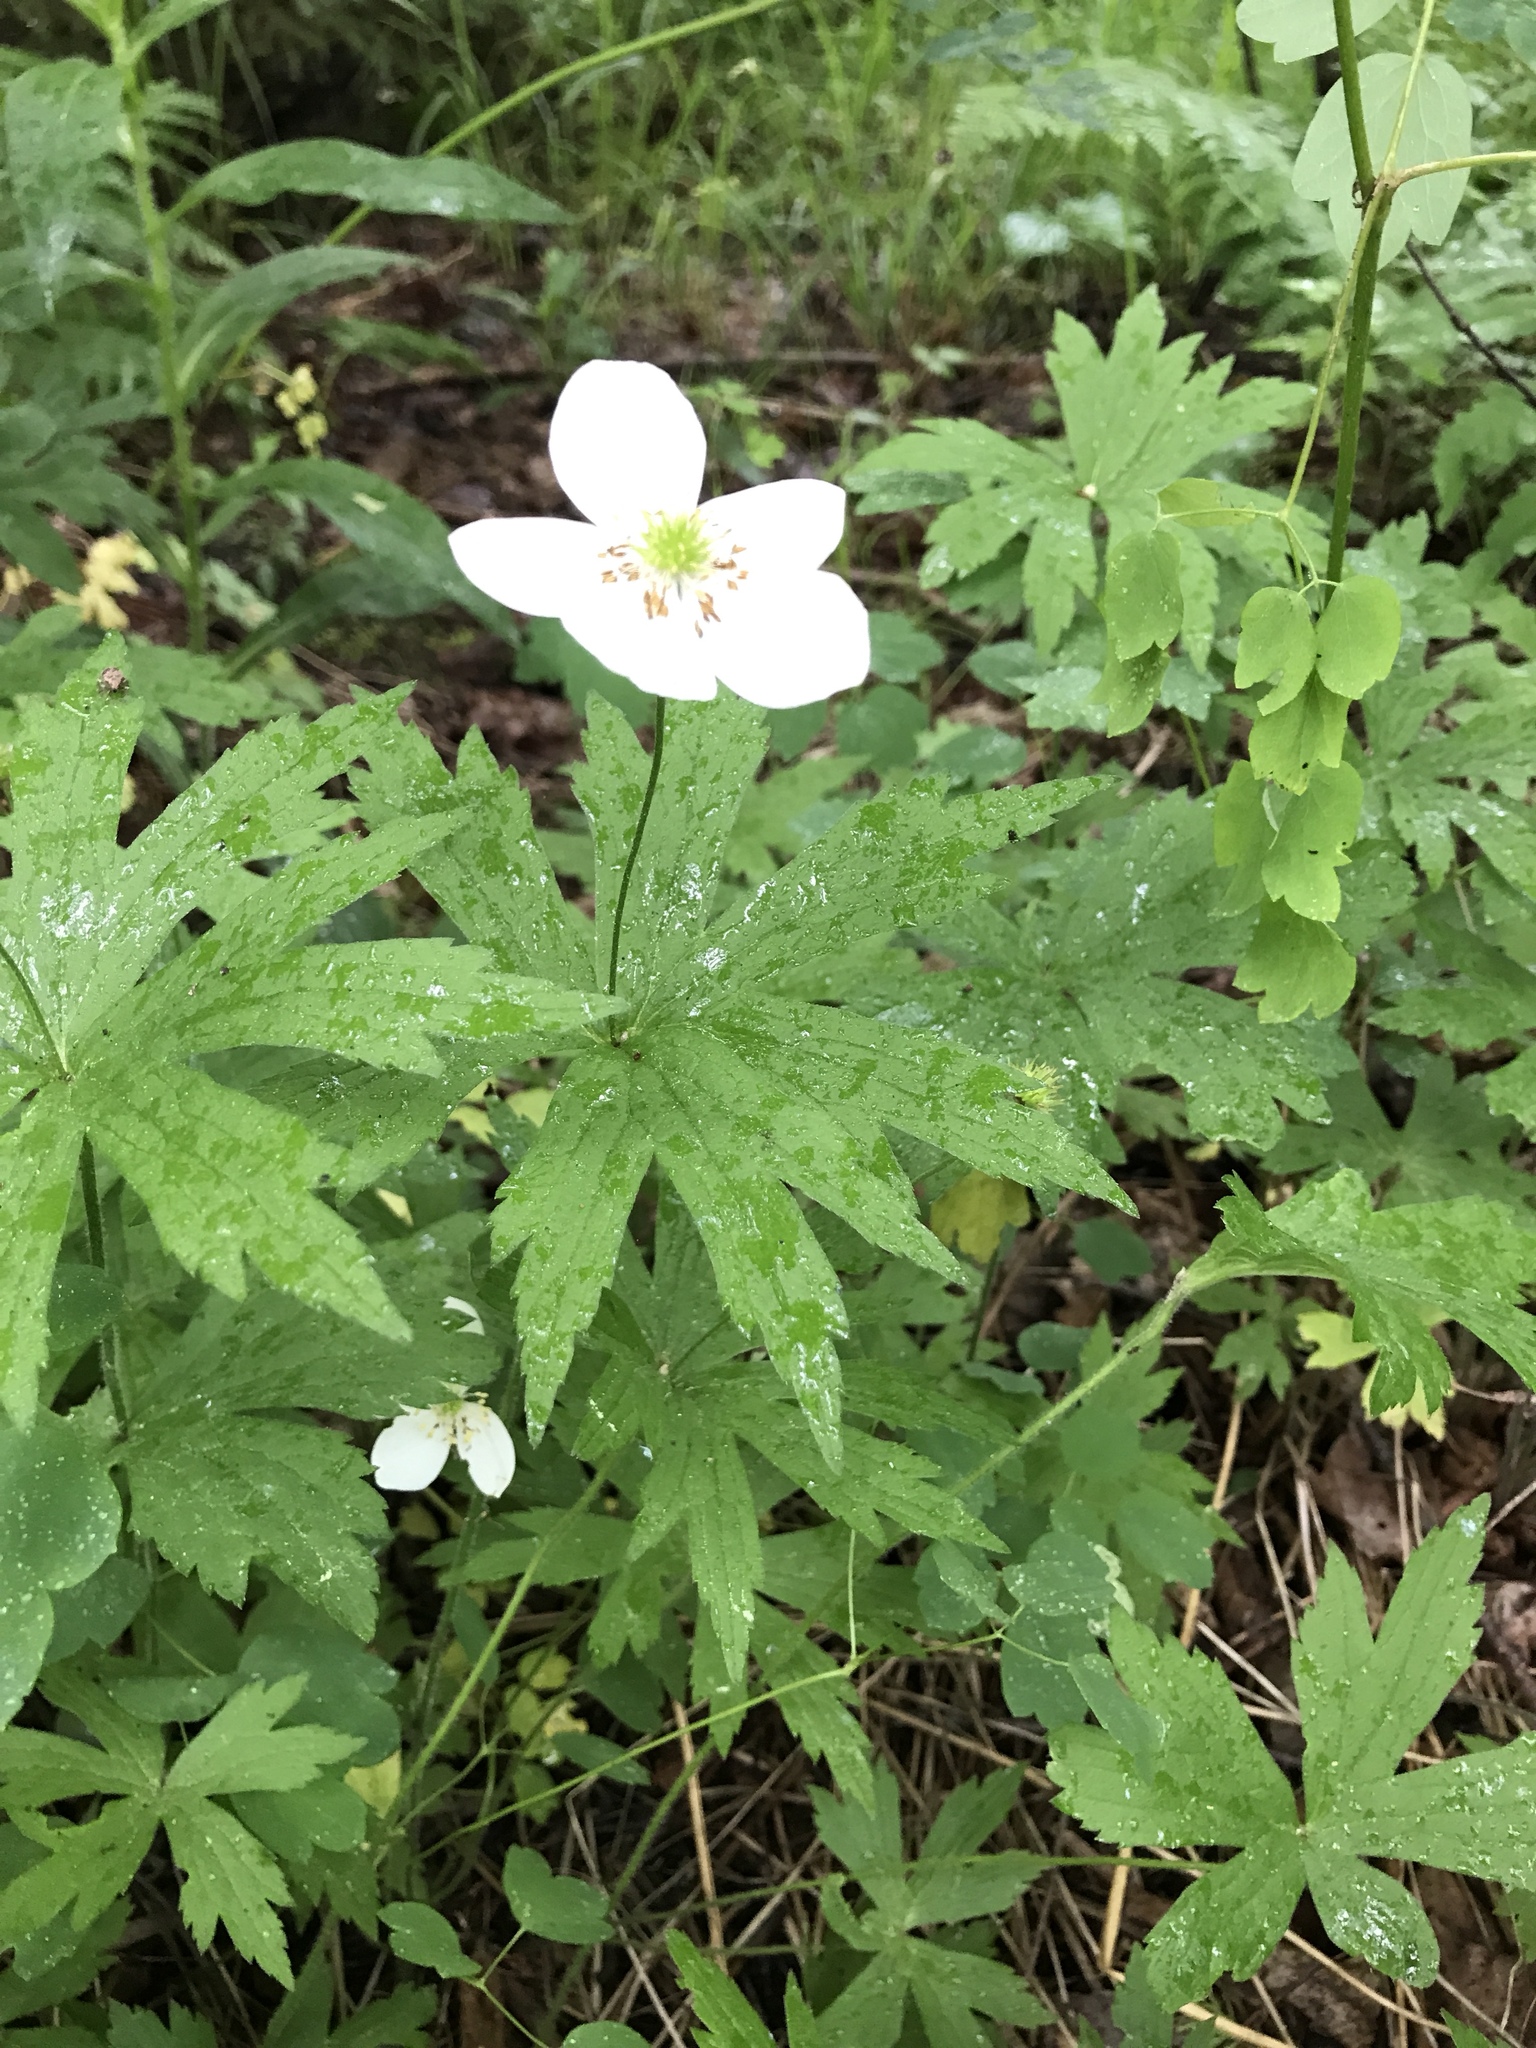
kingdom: Plantae
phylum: Tracheophyta
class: Magnoliopsida
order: Ranunculales
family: Ranunculaceae
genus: Anemonastrum
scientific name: Anemonastrum canadense
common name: Canada anemone
